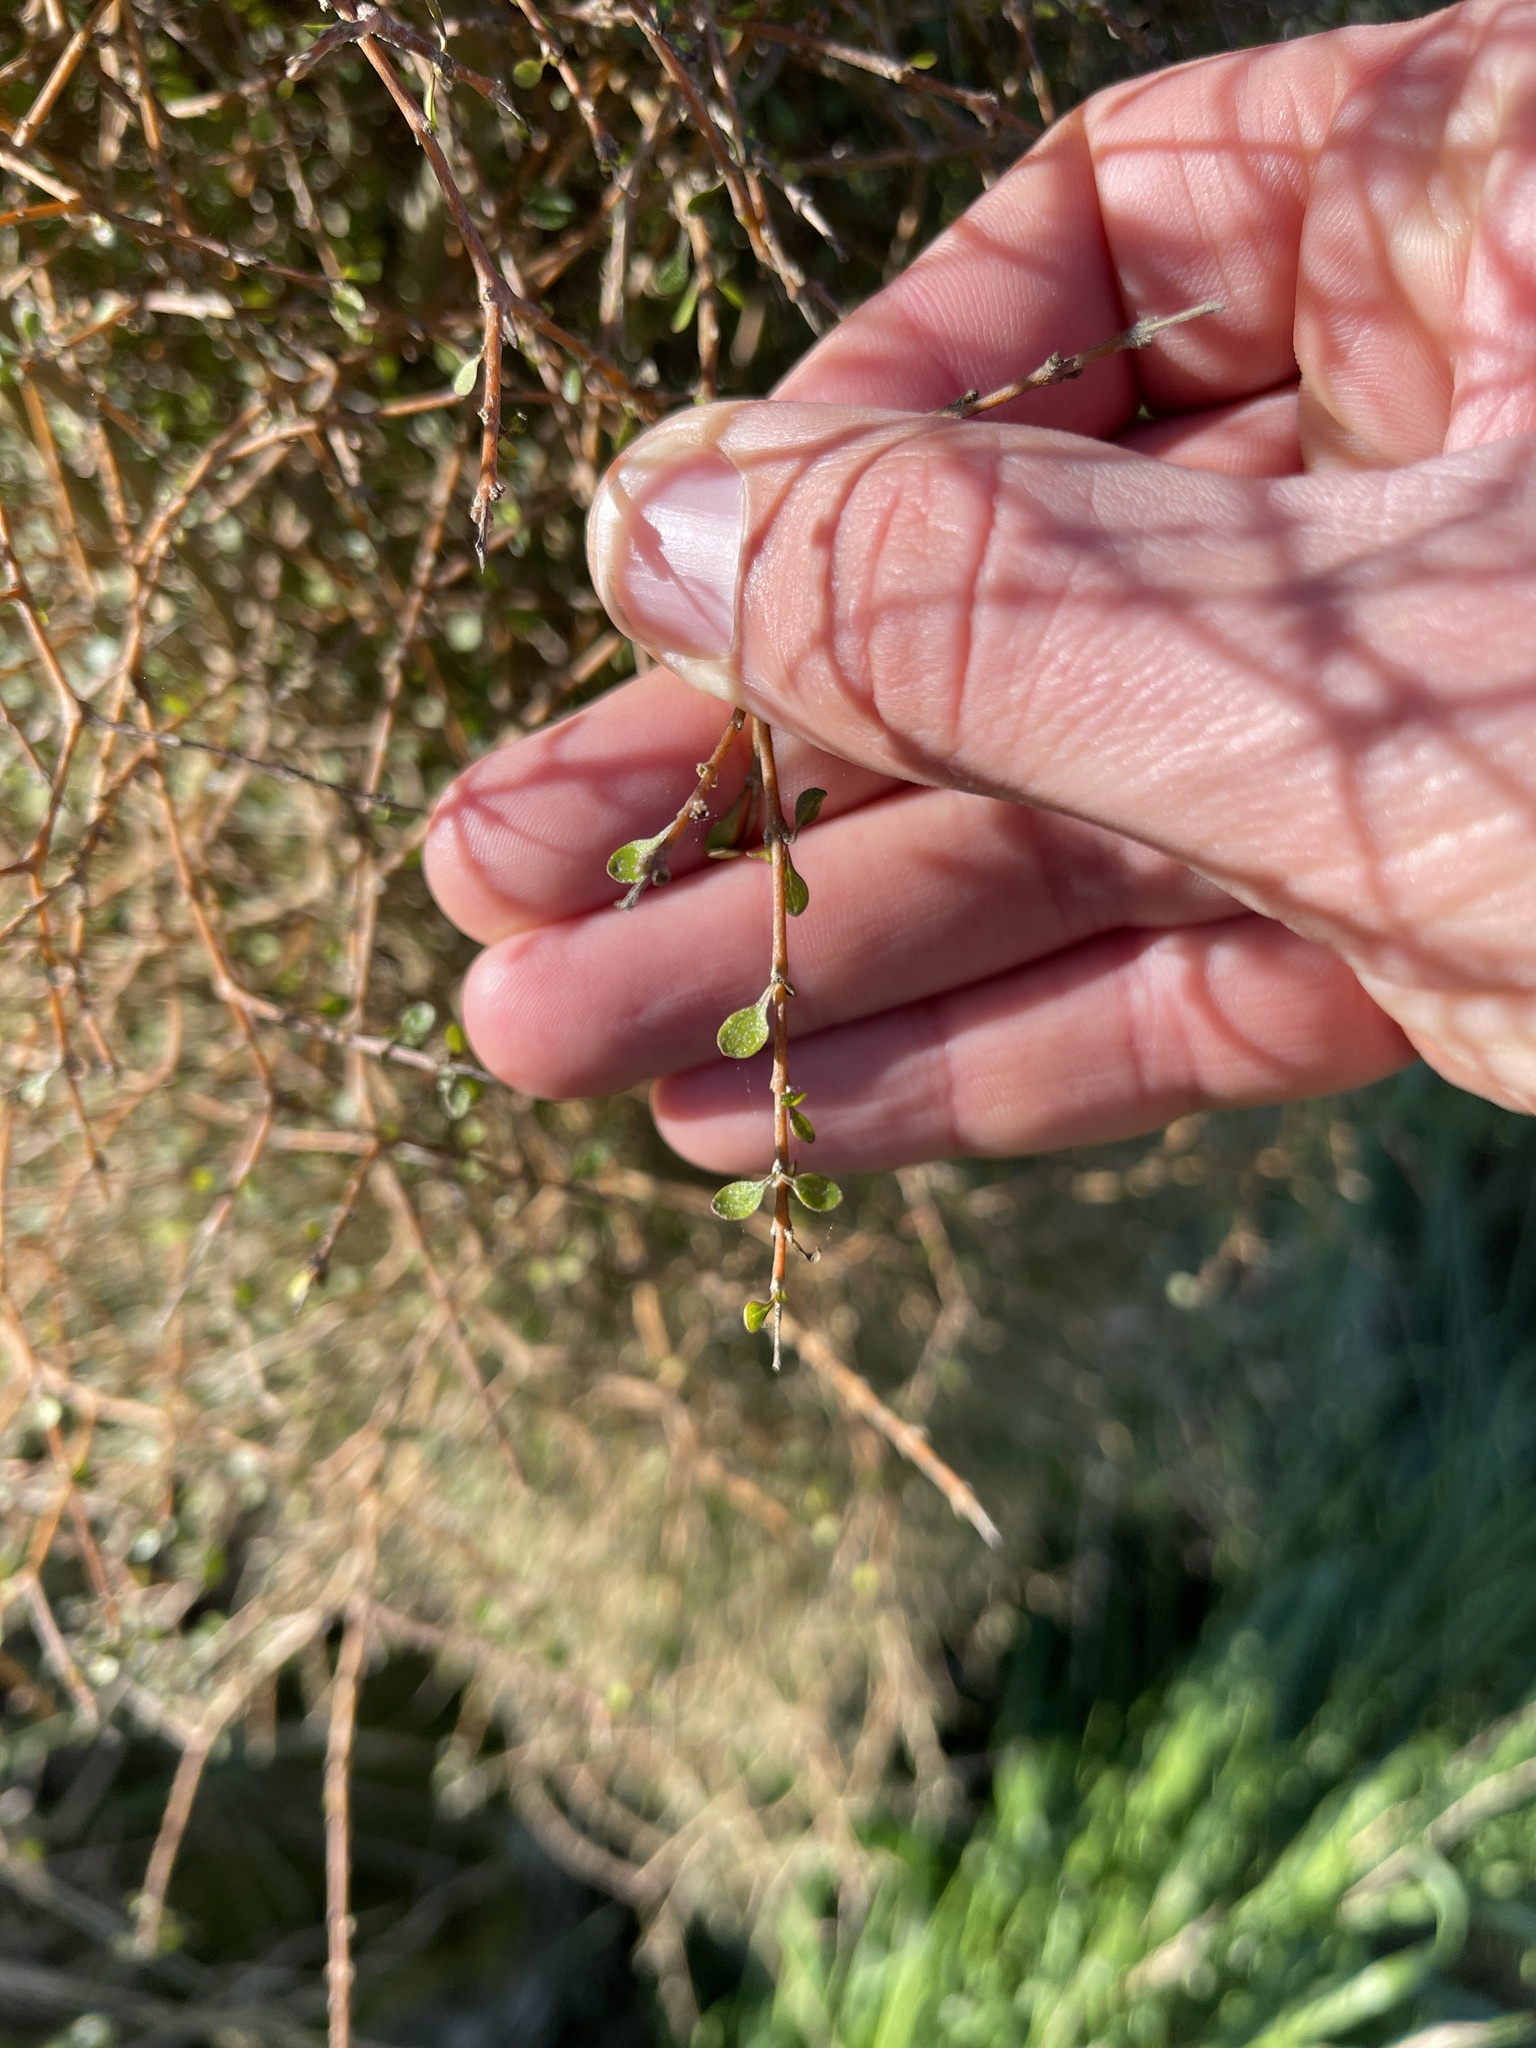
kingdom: Plantae
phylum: Tracheophyta
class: Magnoliopsida
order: Gentianales
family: Rubiaceae
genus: Coprosma
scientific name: Coprosma virescens
